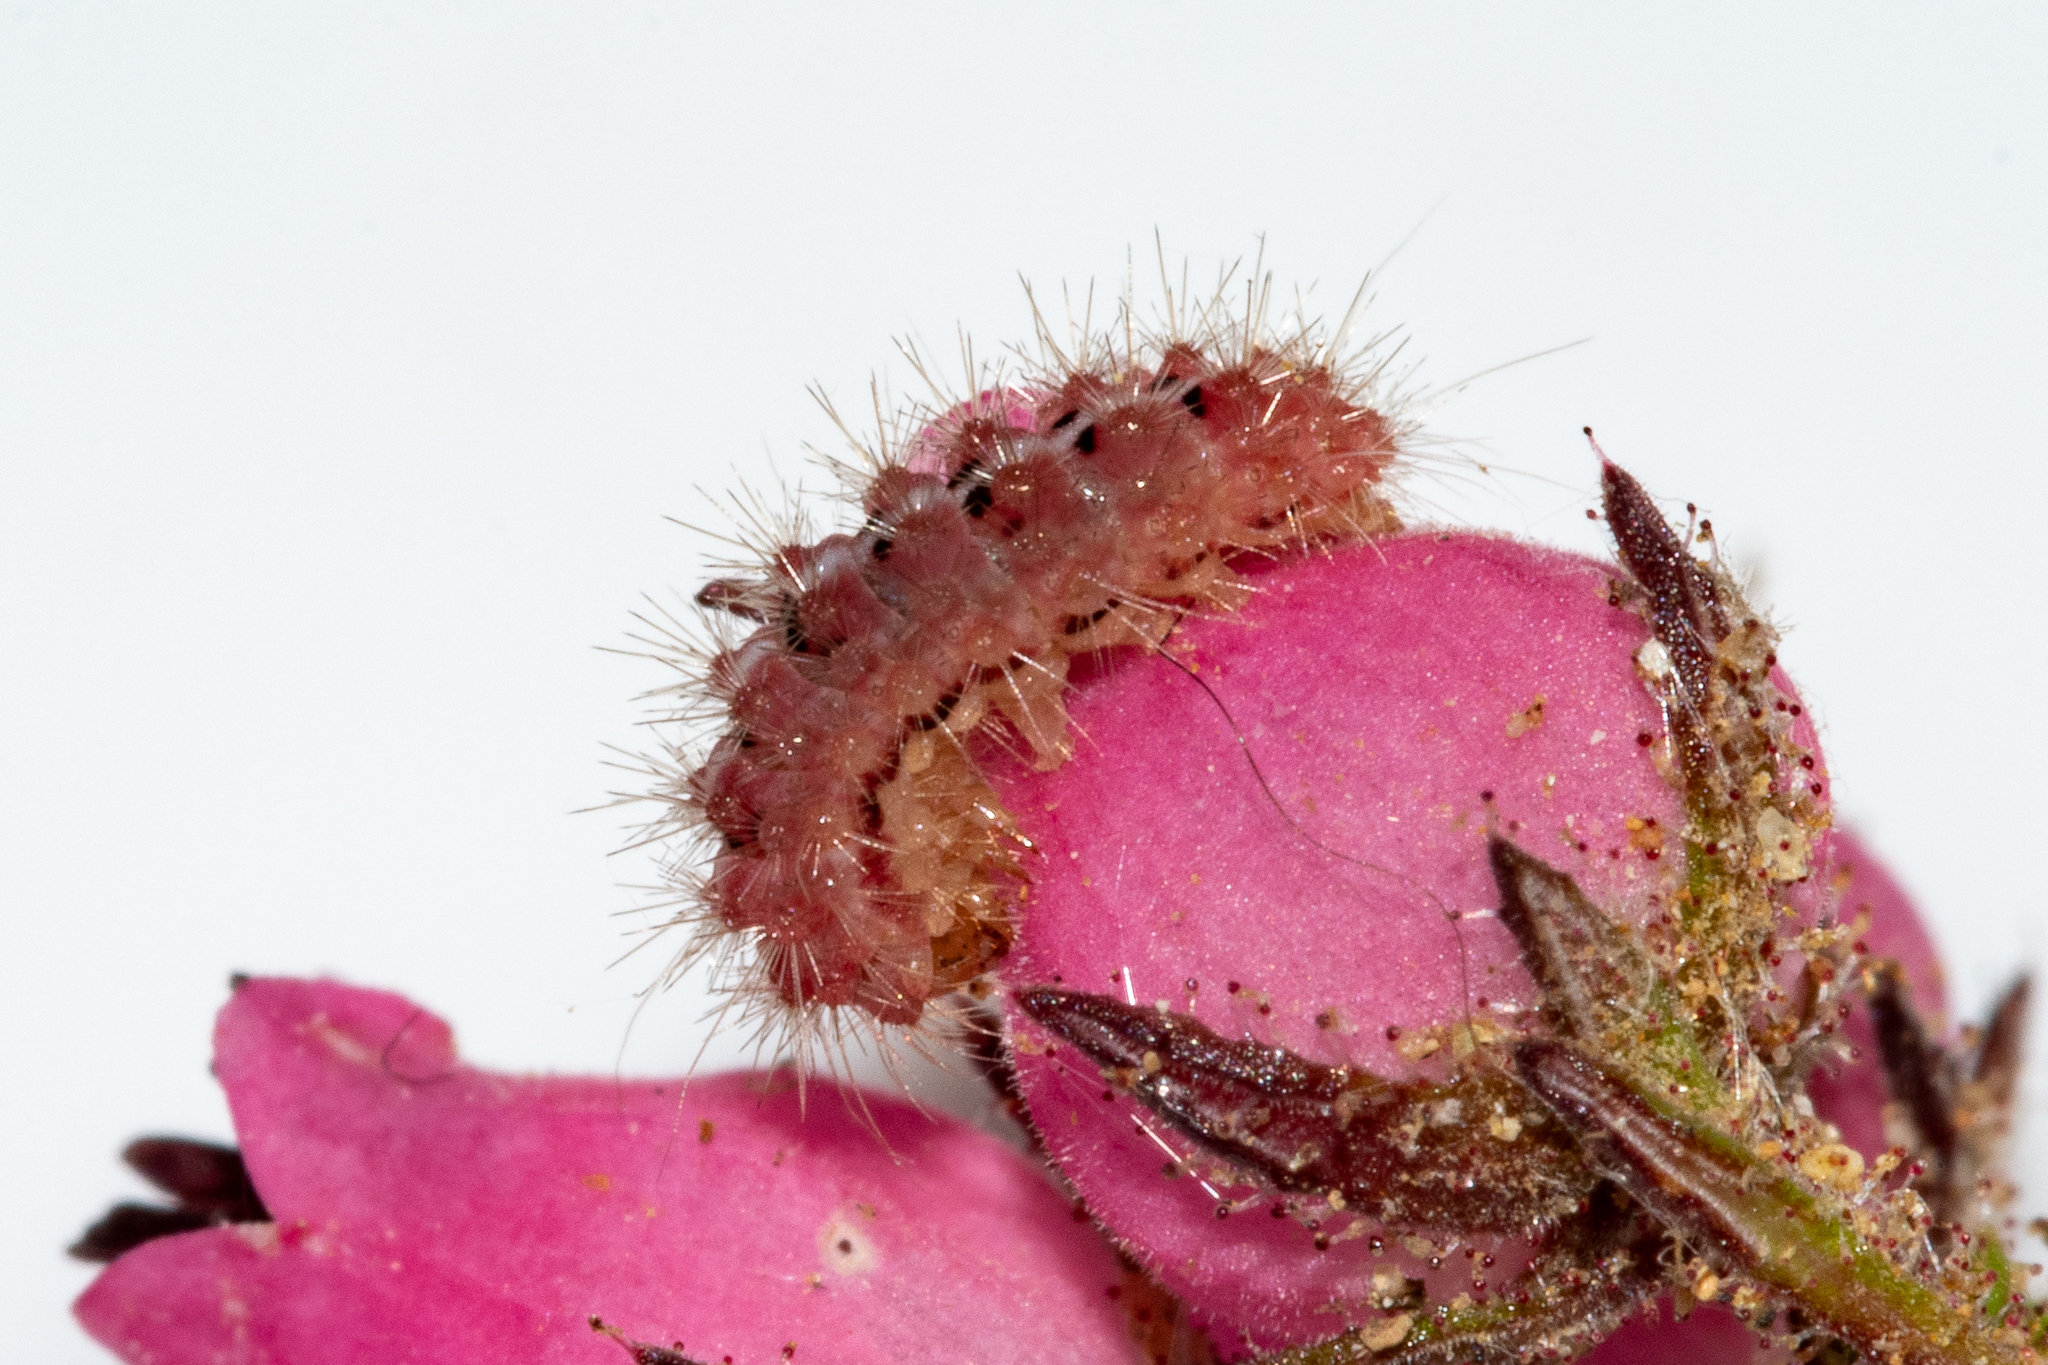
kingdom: Animalia
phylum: Arthropoda
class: Insecta
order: Lepidoptera
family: Nolidae
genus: Nolidia
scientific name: Nolidia unipuncta
